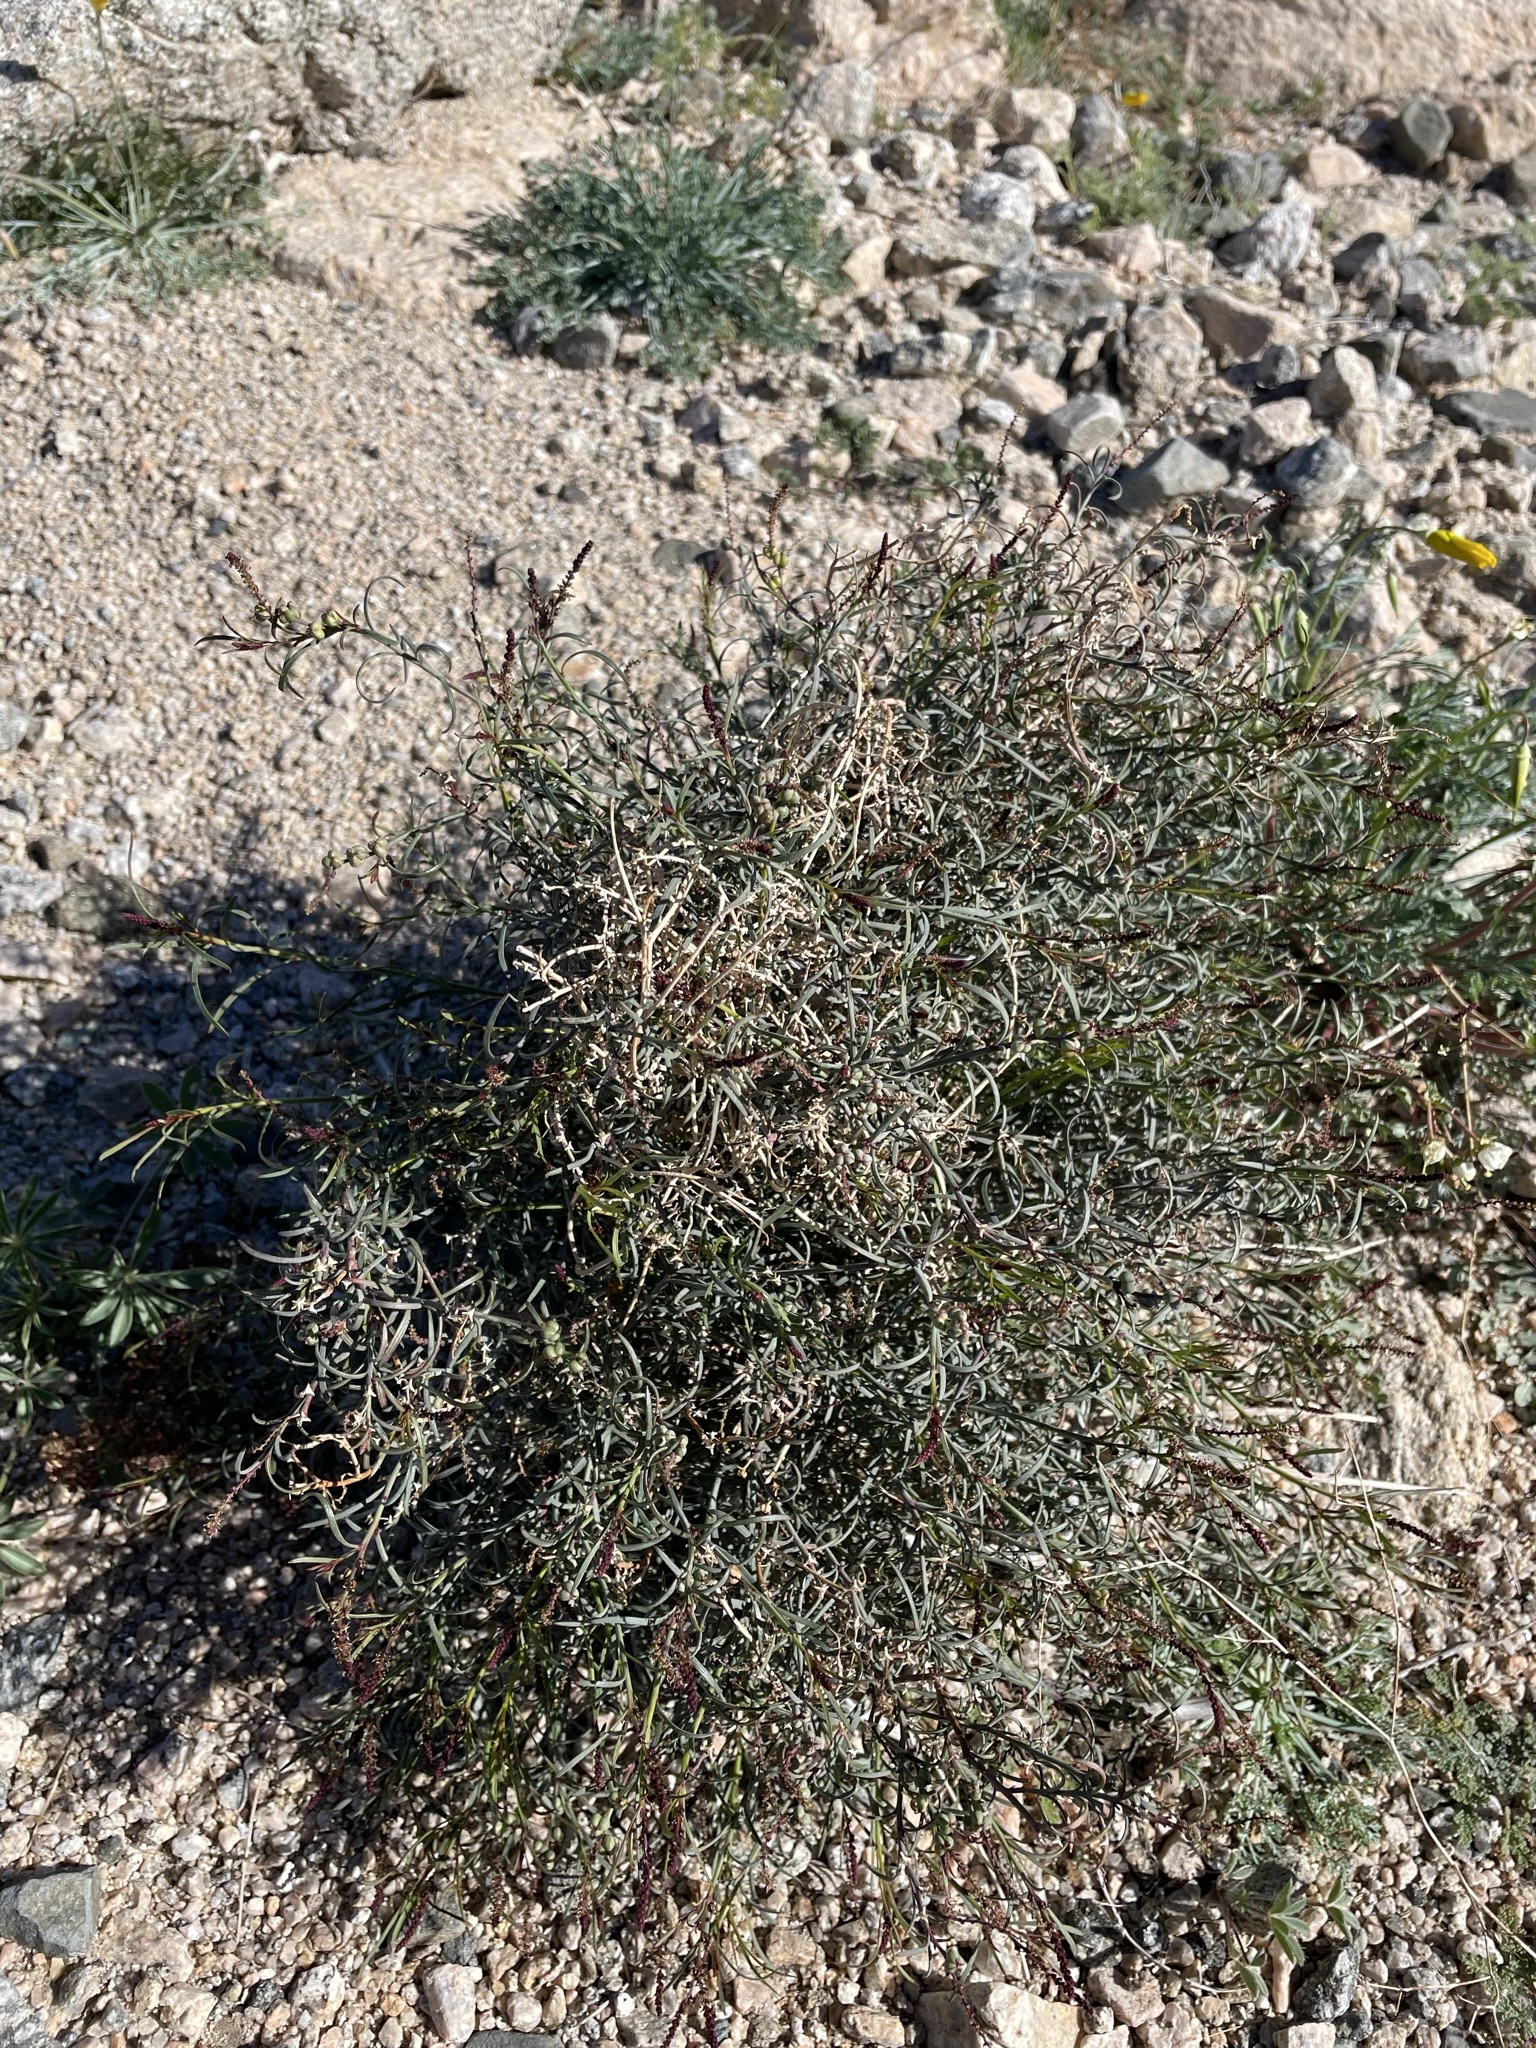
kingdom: Plantae
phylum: Tracheophyta
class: Magnoliopsida
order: Malpighiales
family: Euphorbiaceae
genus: Stillingia
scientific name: Stillingia linearifolia
